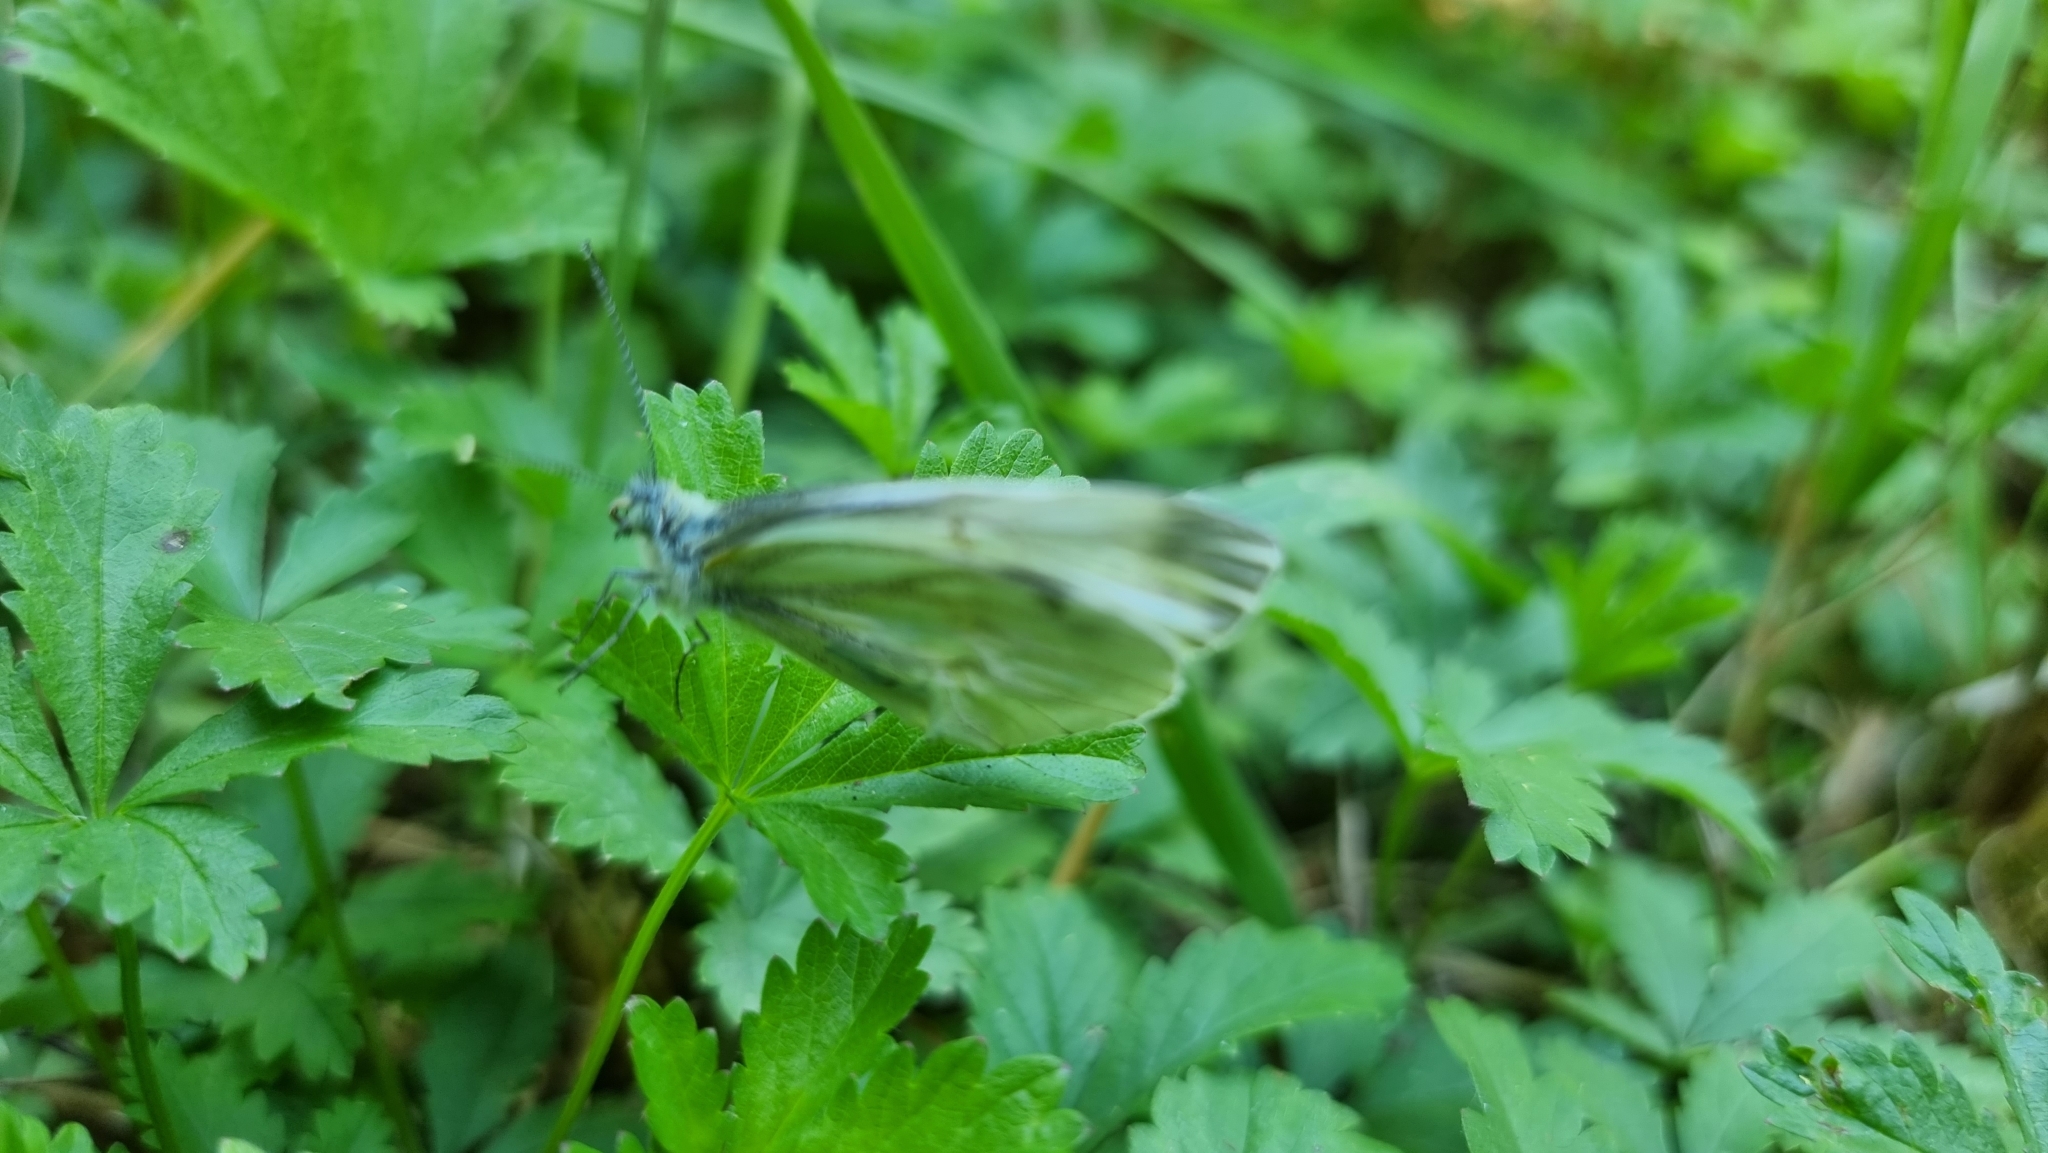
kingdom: Animalia
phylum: Arthropoda
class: Insecta
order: Lepidoptera
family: Pieridae
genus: Pieris
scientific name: Pieris napi
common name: Green-veined white
